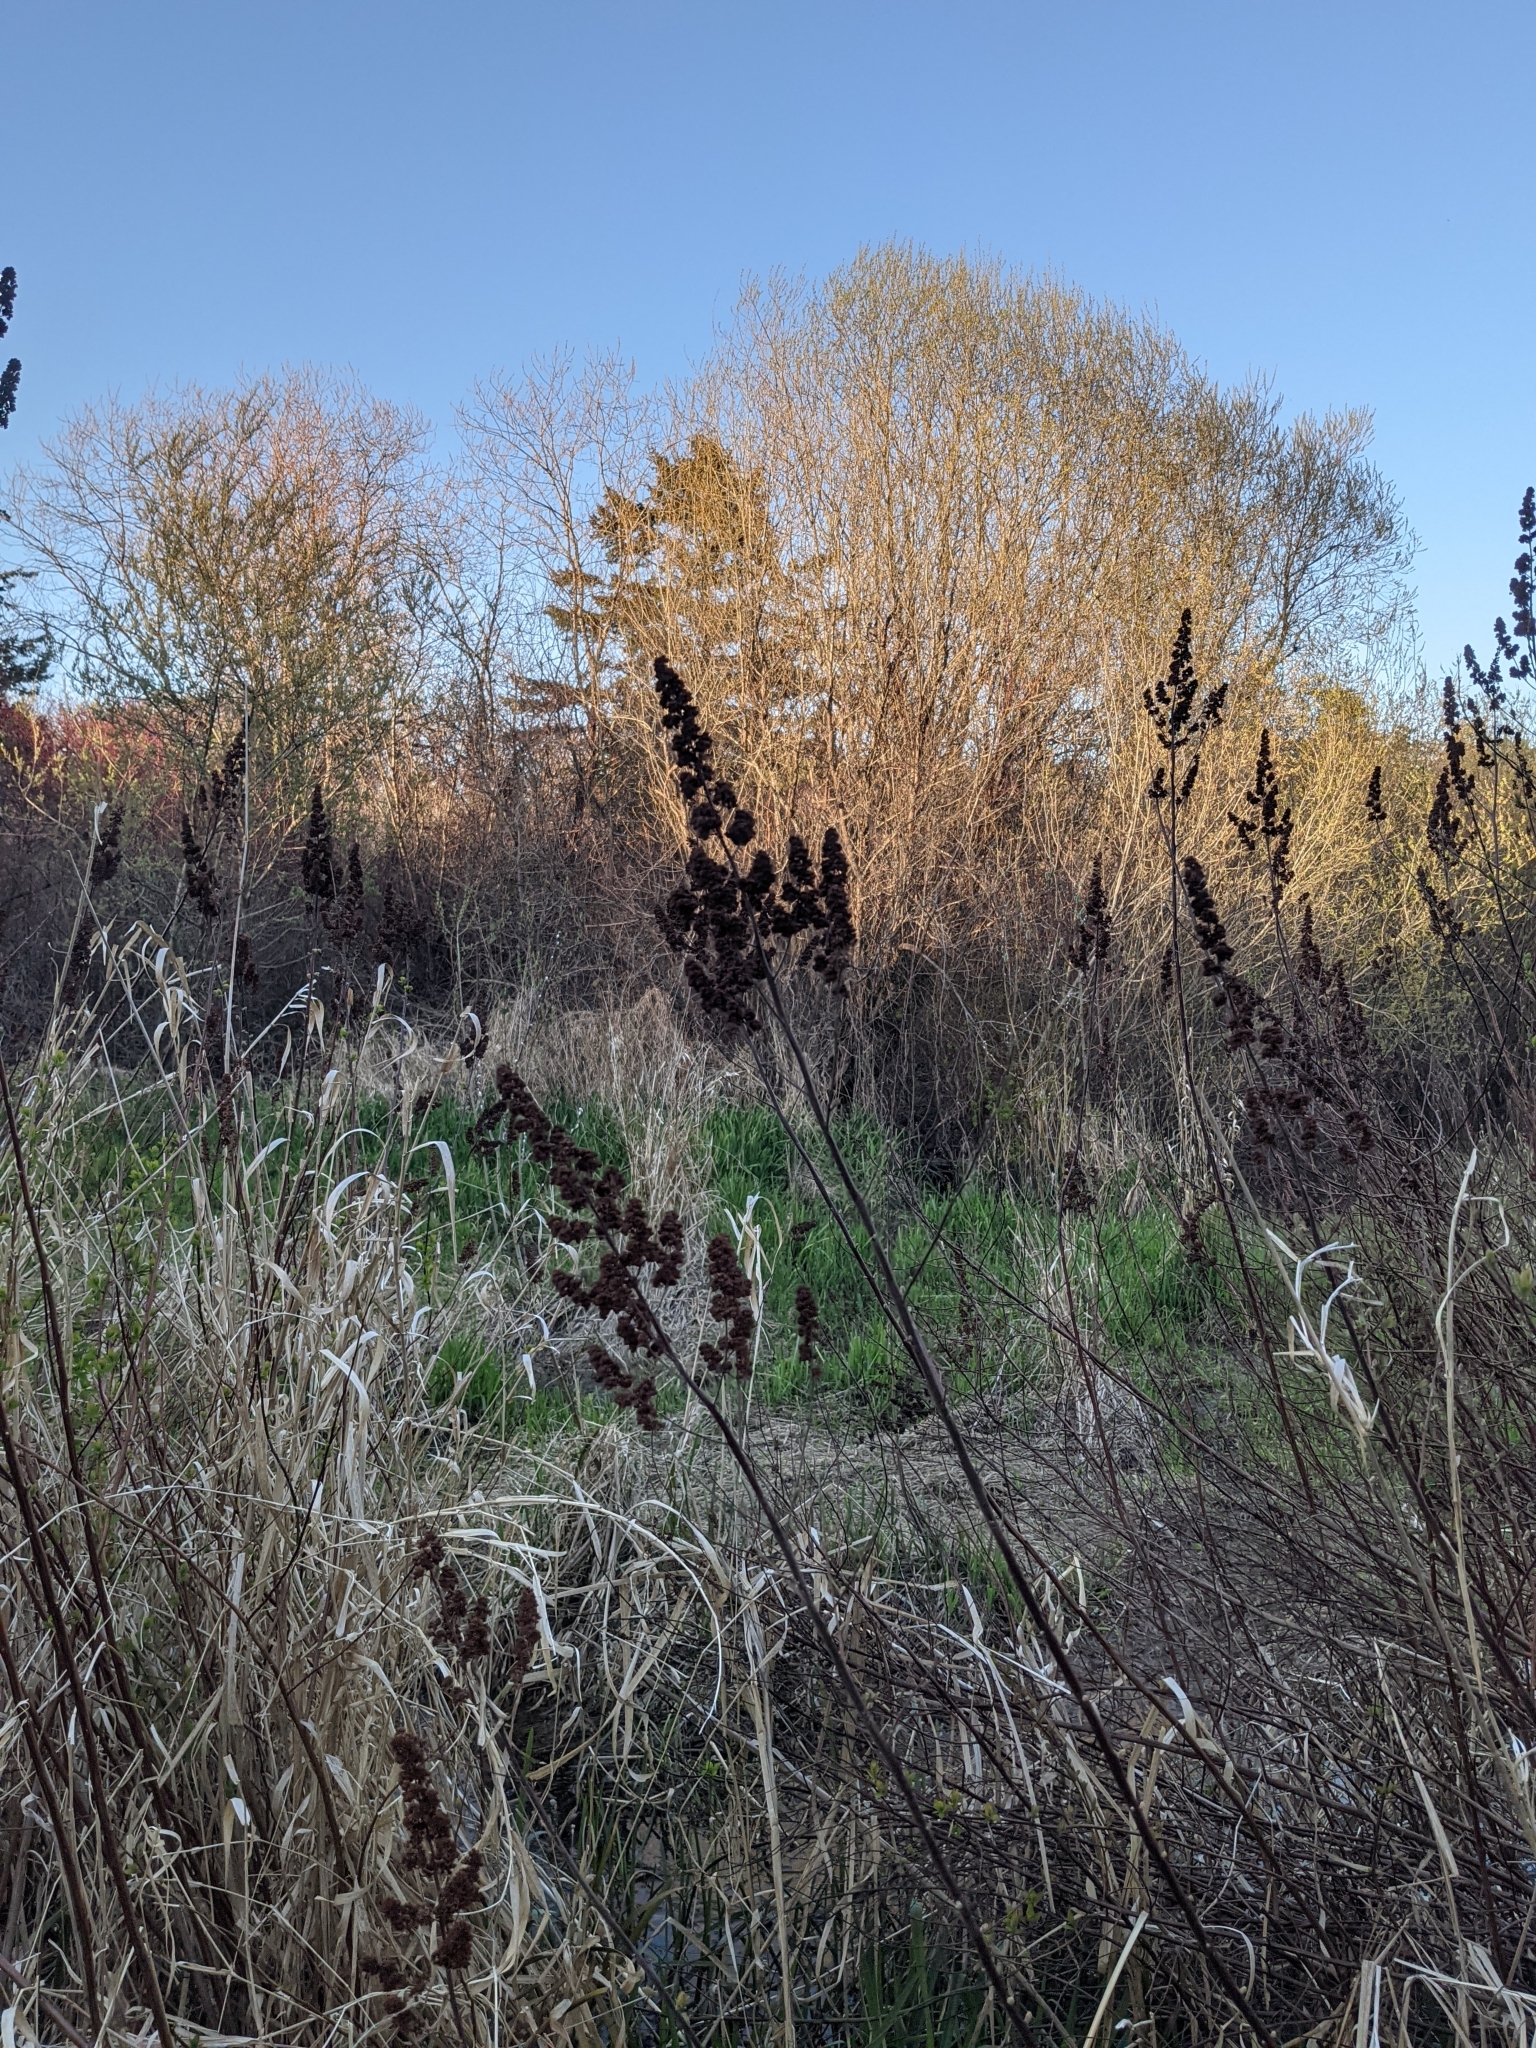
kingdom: Plantae
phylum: Tracheophyta
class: Magnoliopsida
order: Rosales
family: Rosaceae
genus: Spiraea
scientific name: Spiraea douglasii
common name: Steeplebush
